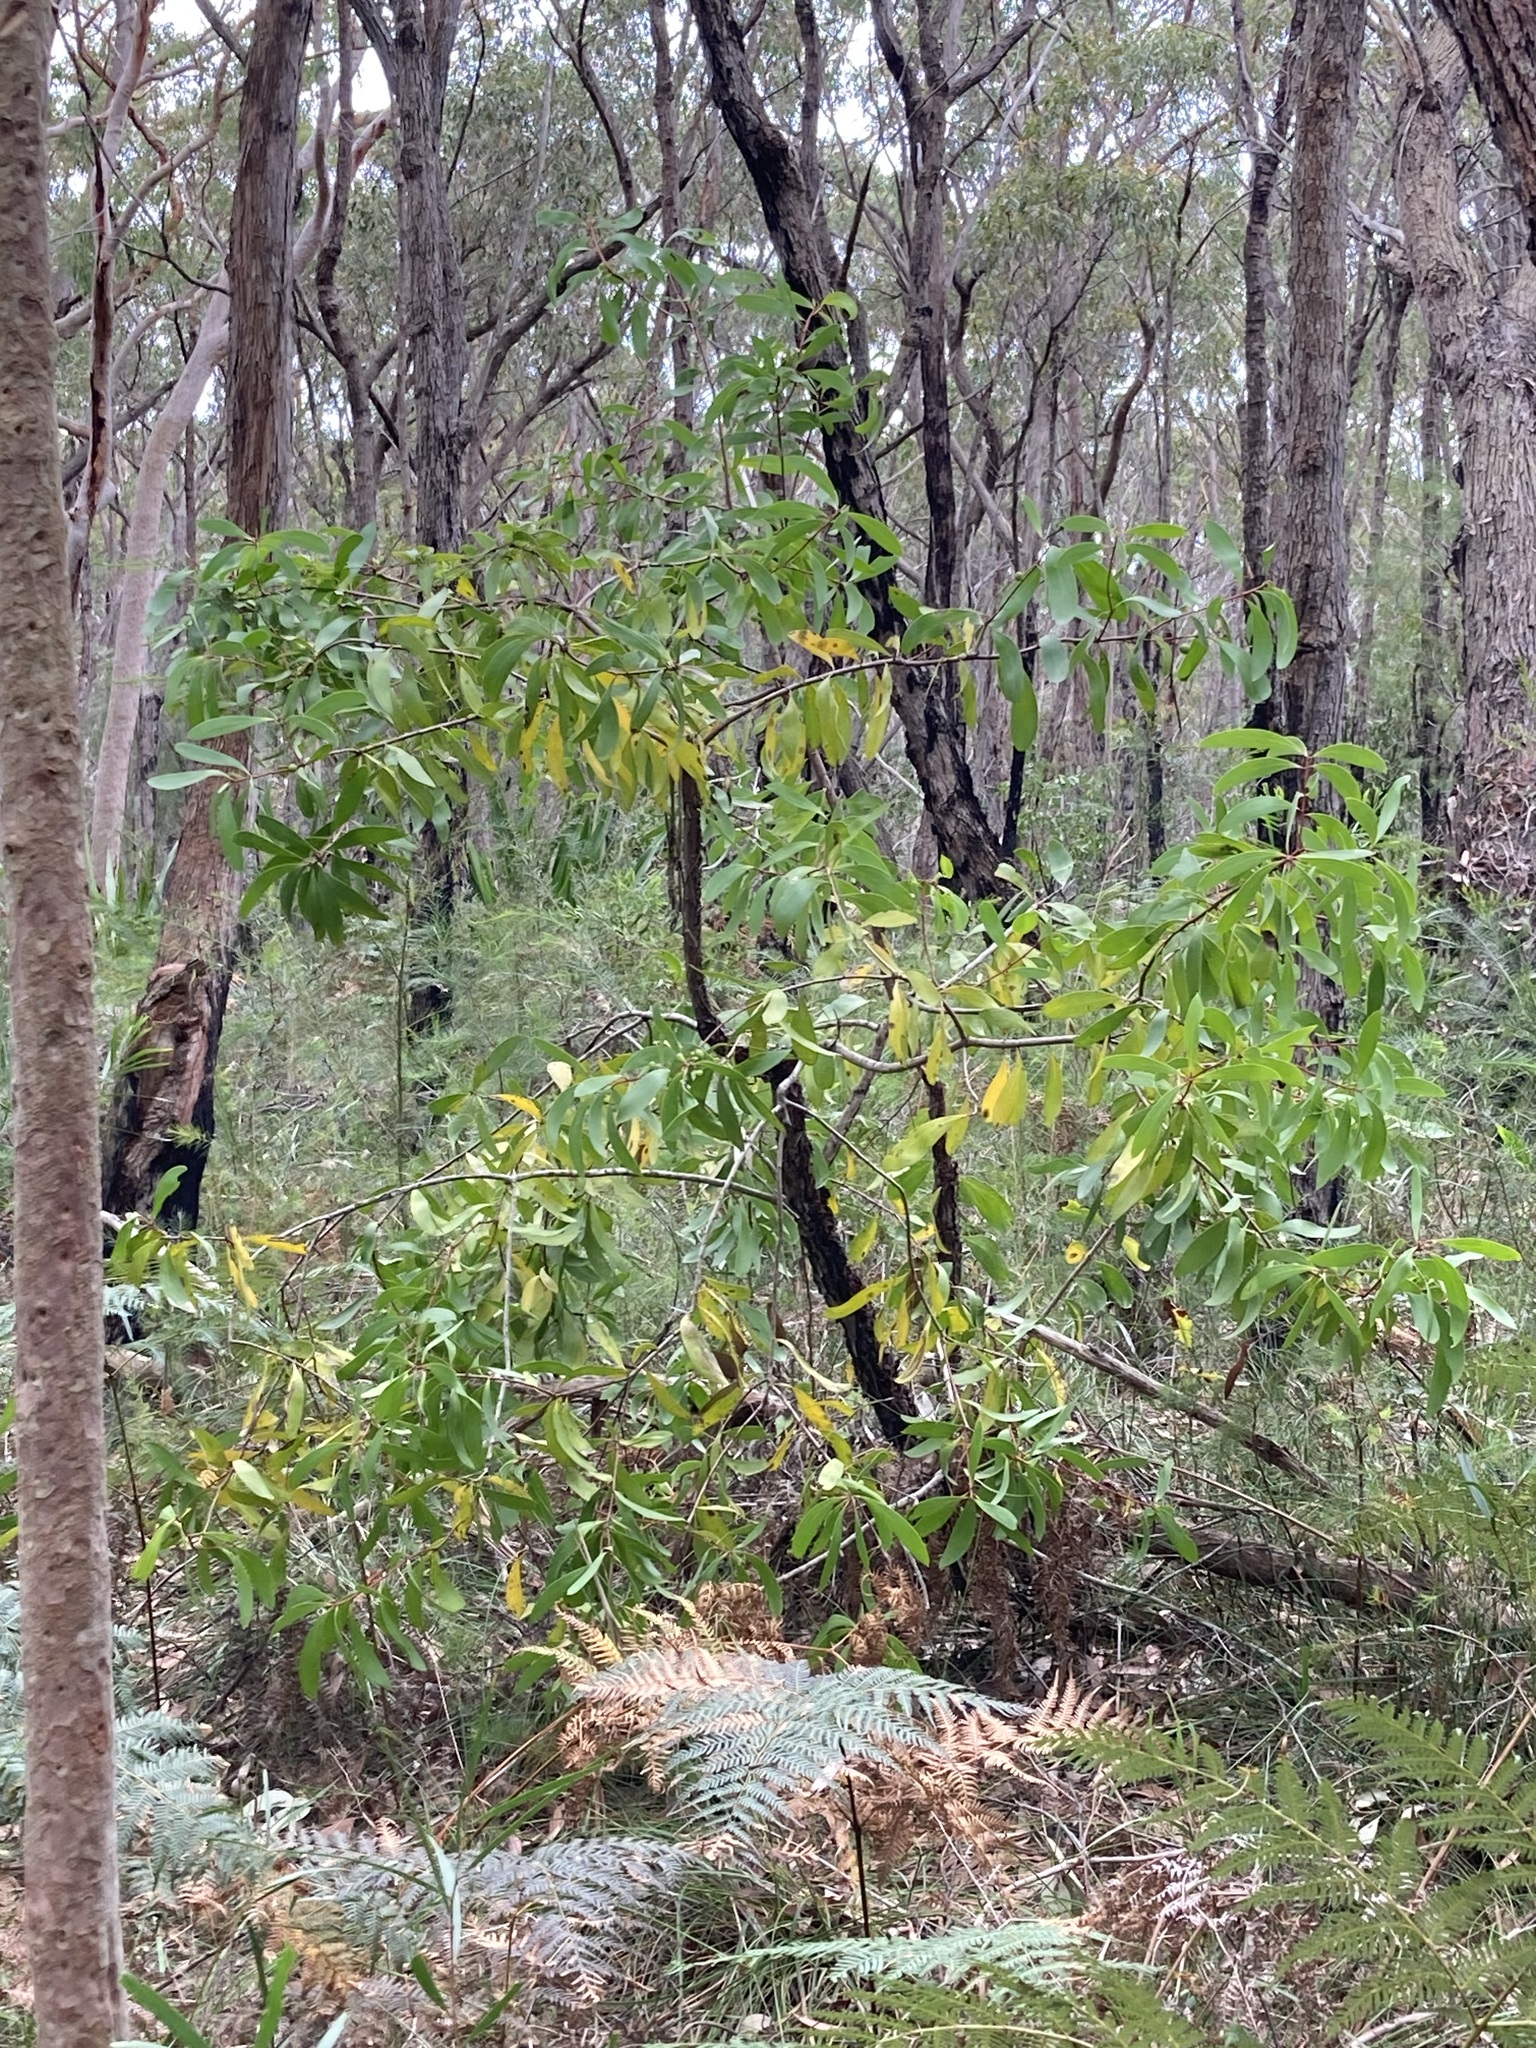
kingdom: Plantae
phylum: Tracheophyta
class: Magnoliopsida
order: Proteales
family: Proteaceae
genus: Persoonia
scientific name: Persoonia levis
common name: Smooth geebung
